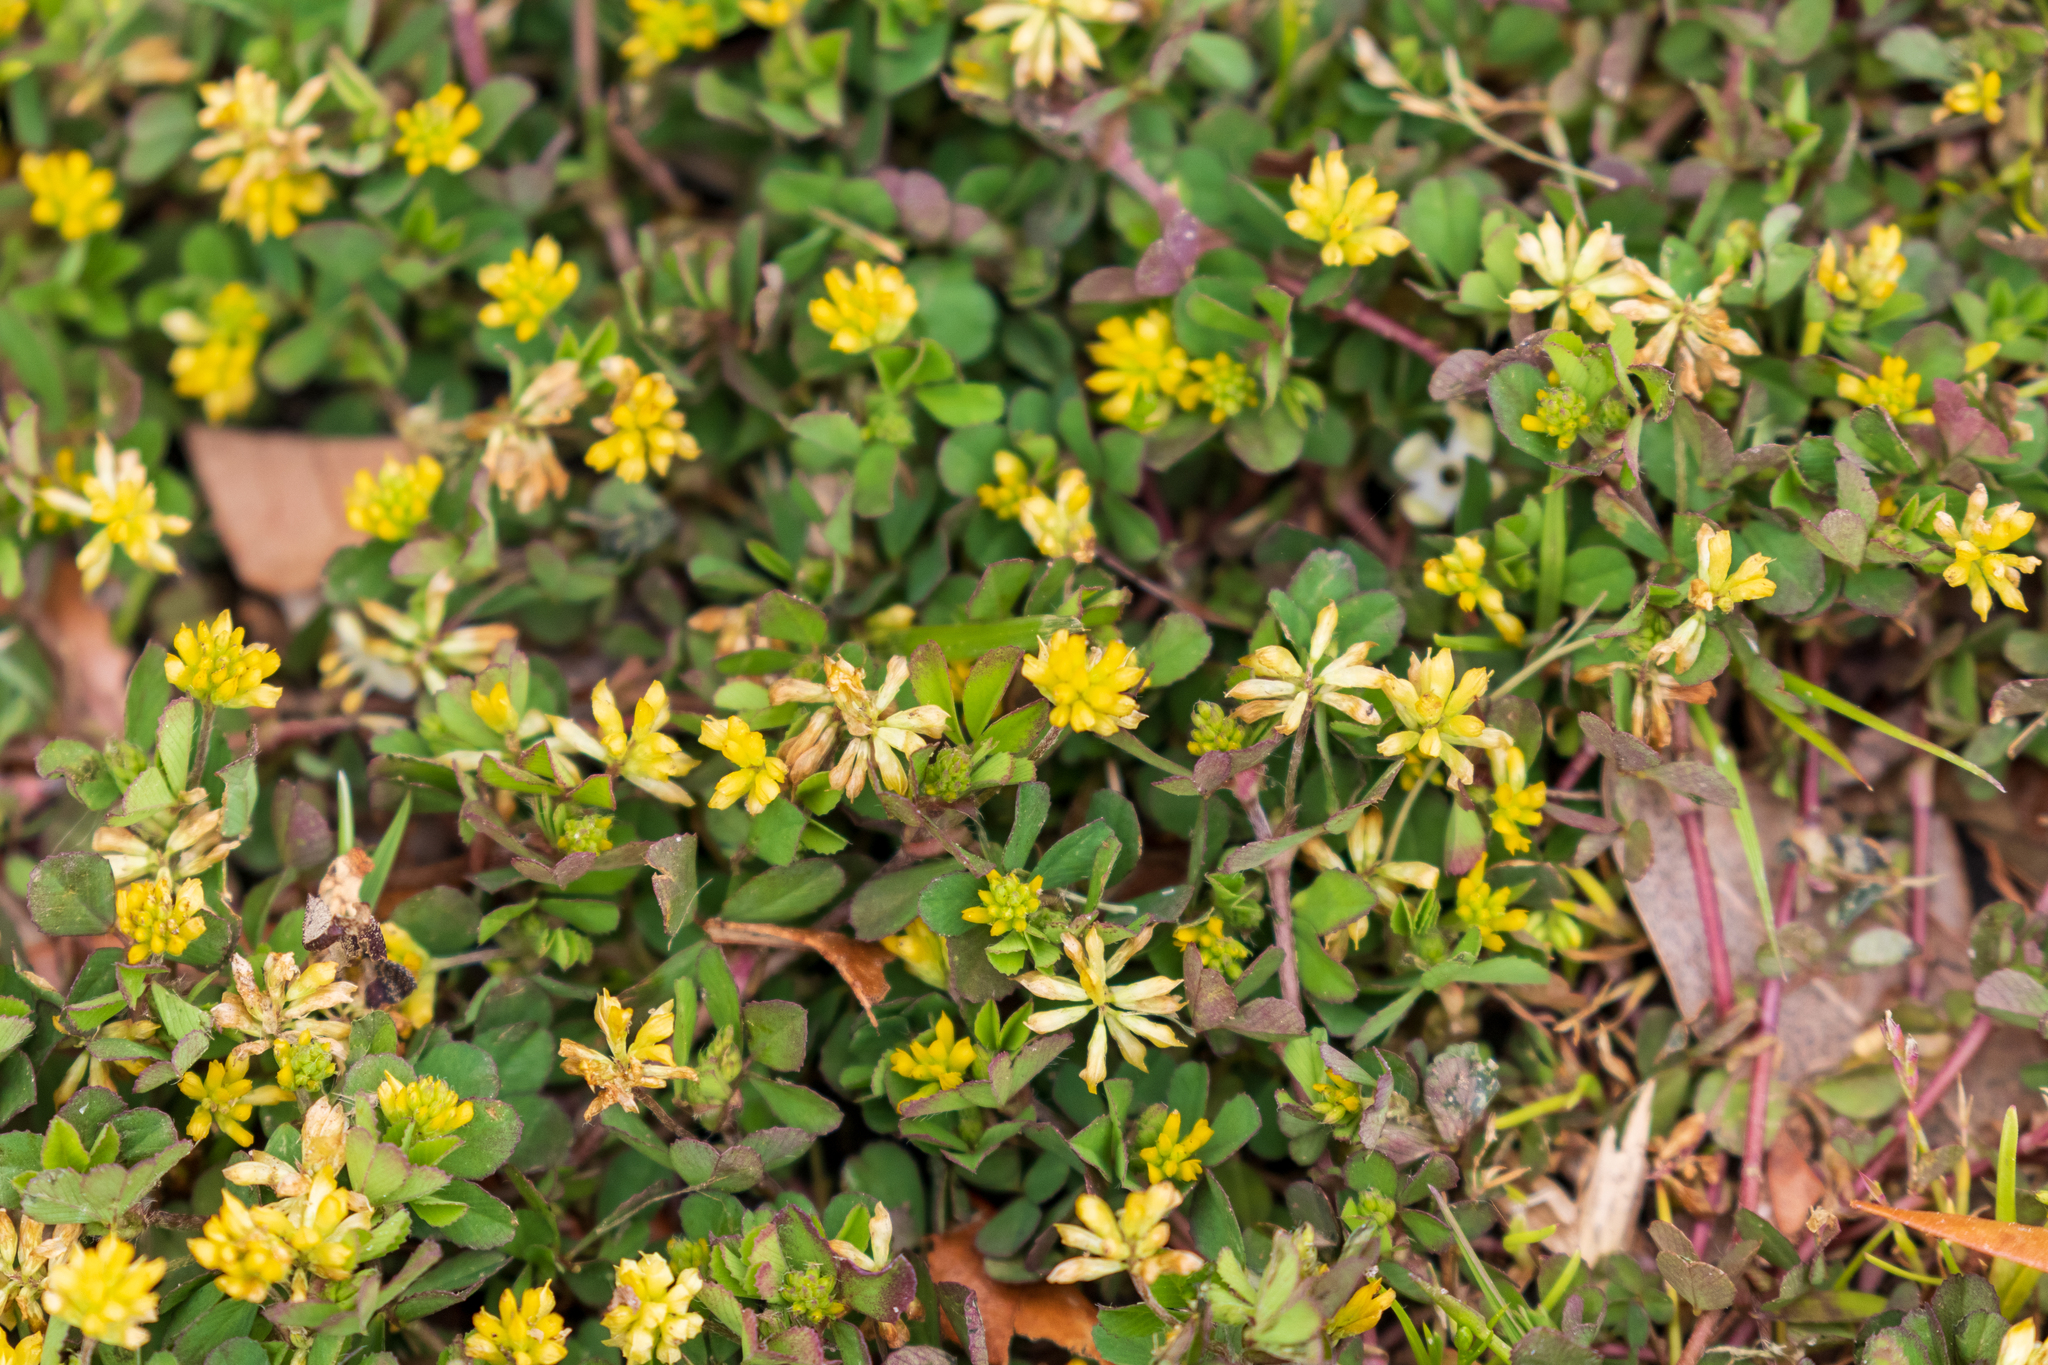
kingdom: Plantae
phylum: Tracheophyta
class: Magnoliopsida
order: Fabales
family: Fabaceae
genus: Trifolium
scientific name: Trifolium dubium
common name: Suckling clover
